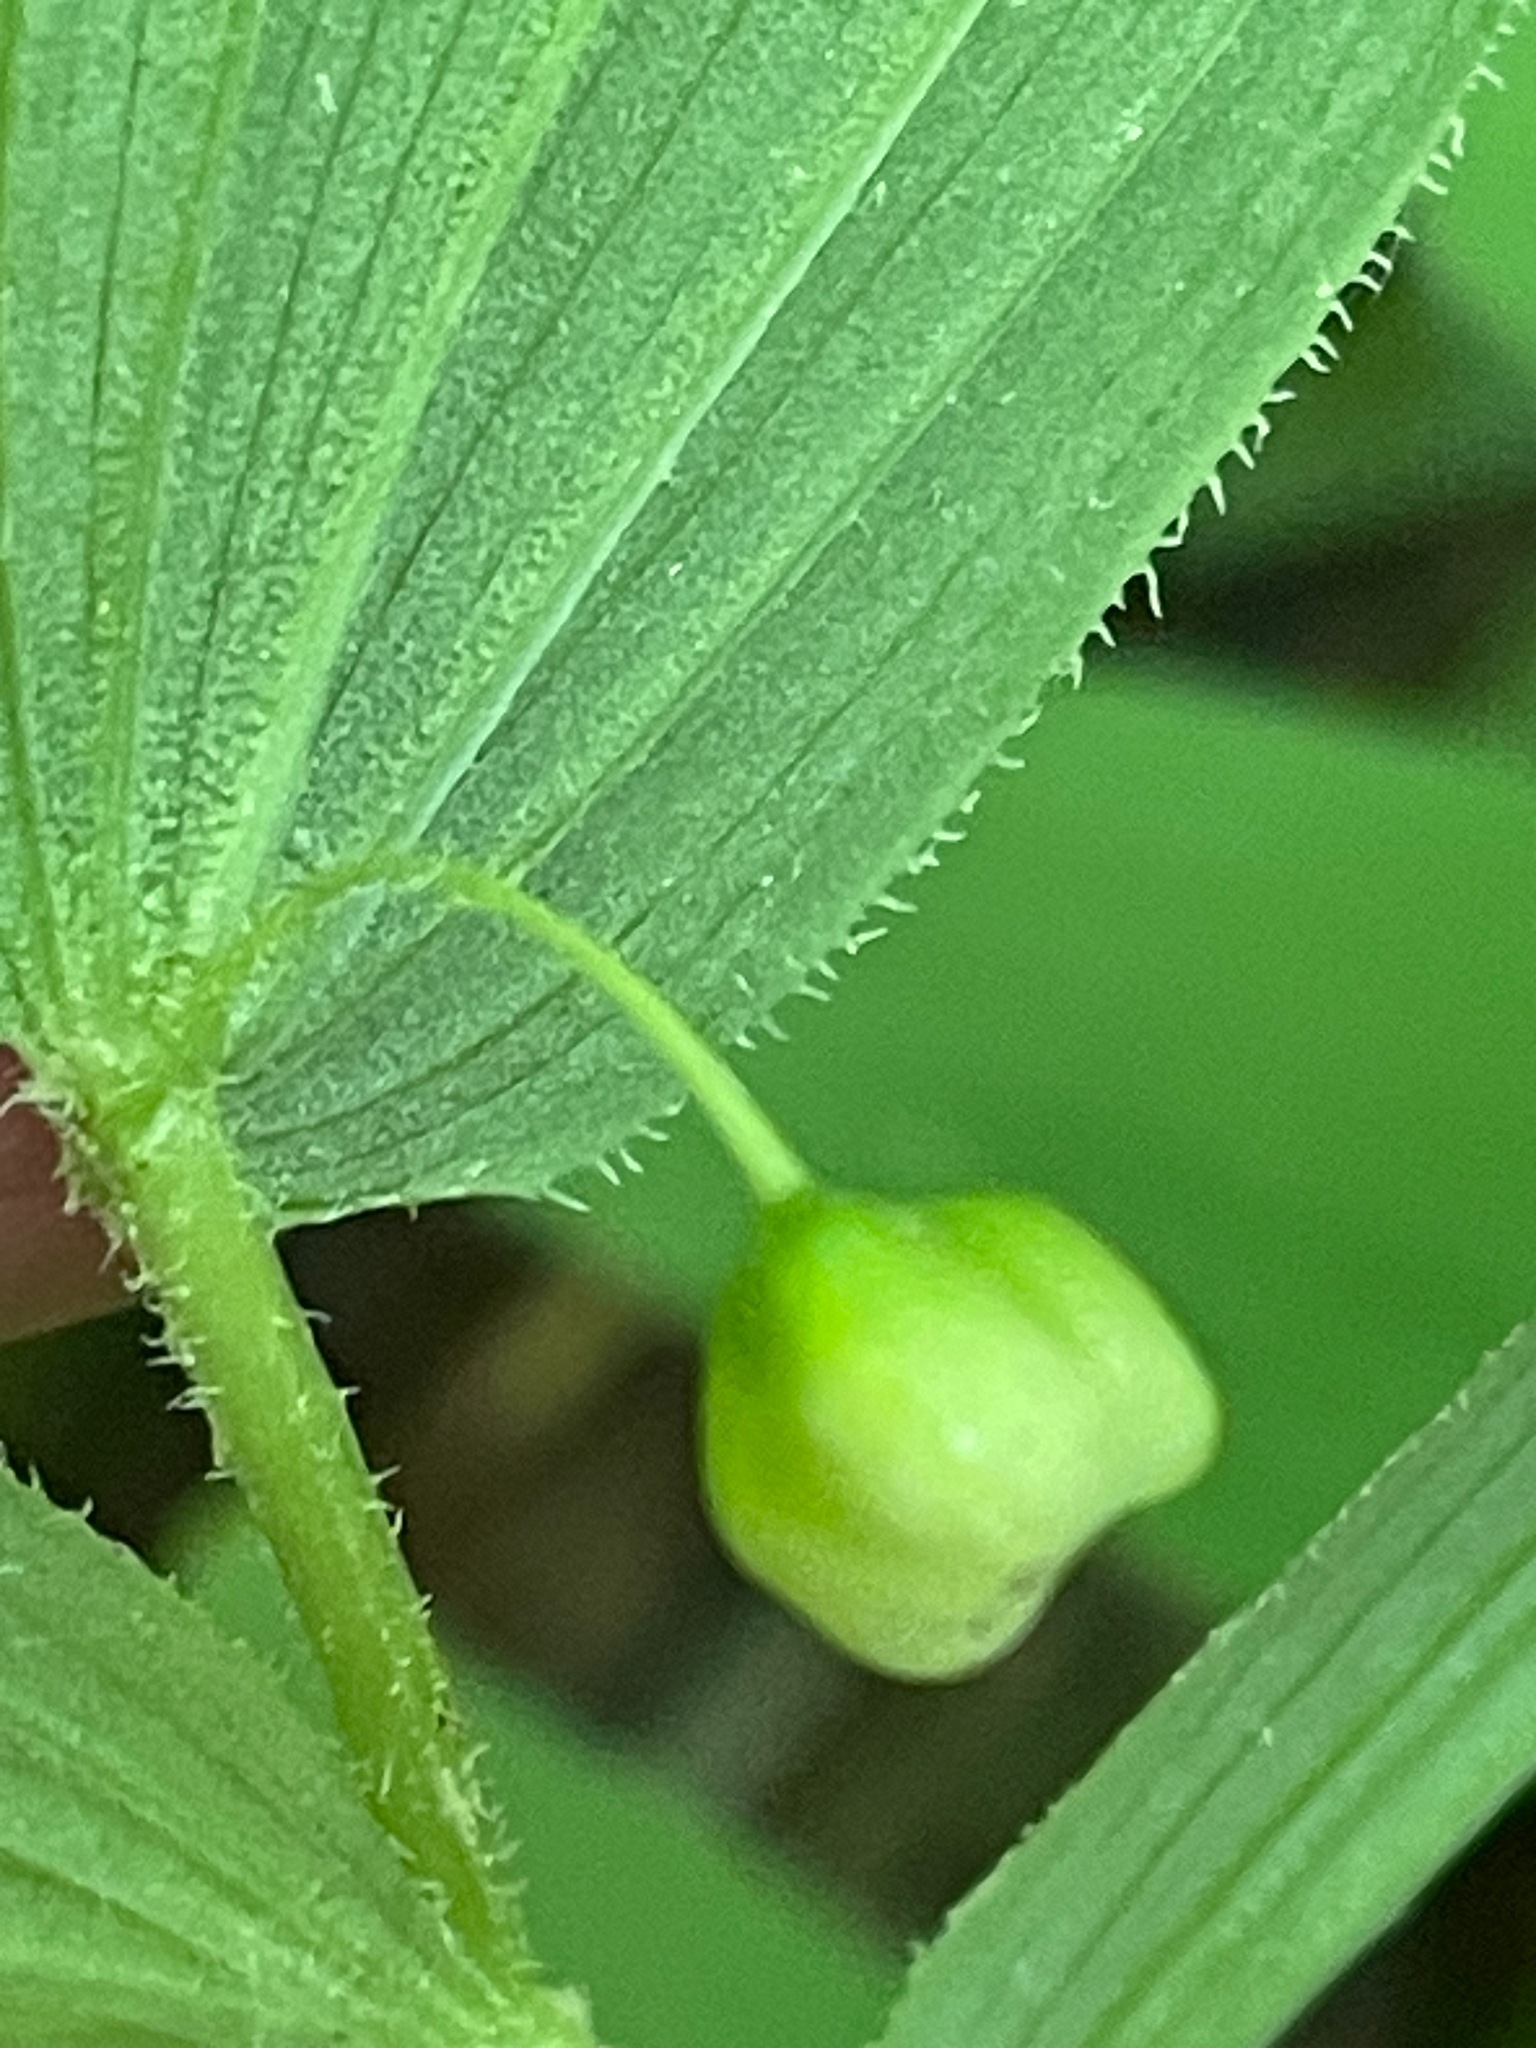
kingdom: Plantae
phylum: Tracheophyta
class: Liliopsida
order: Liliales
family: Liliaceae
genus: Streptopus
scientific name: Streptopus lanceolatus
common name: Rose mandarin
